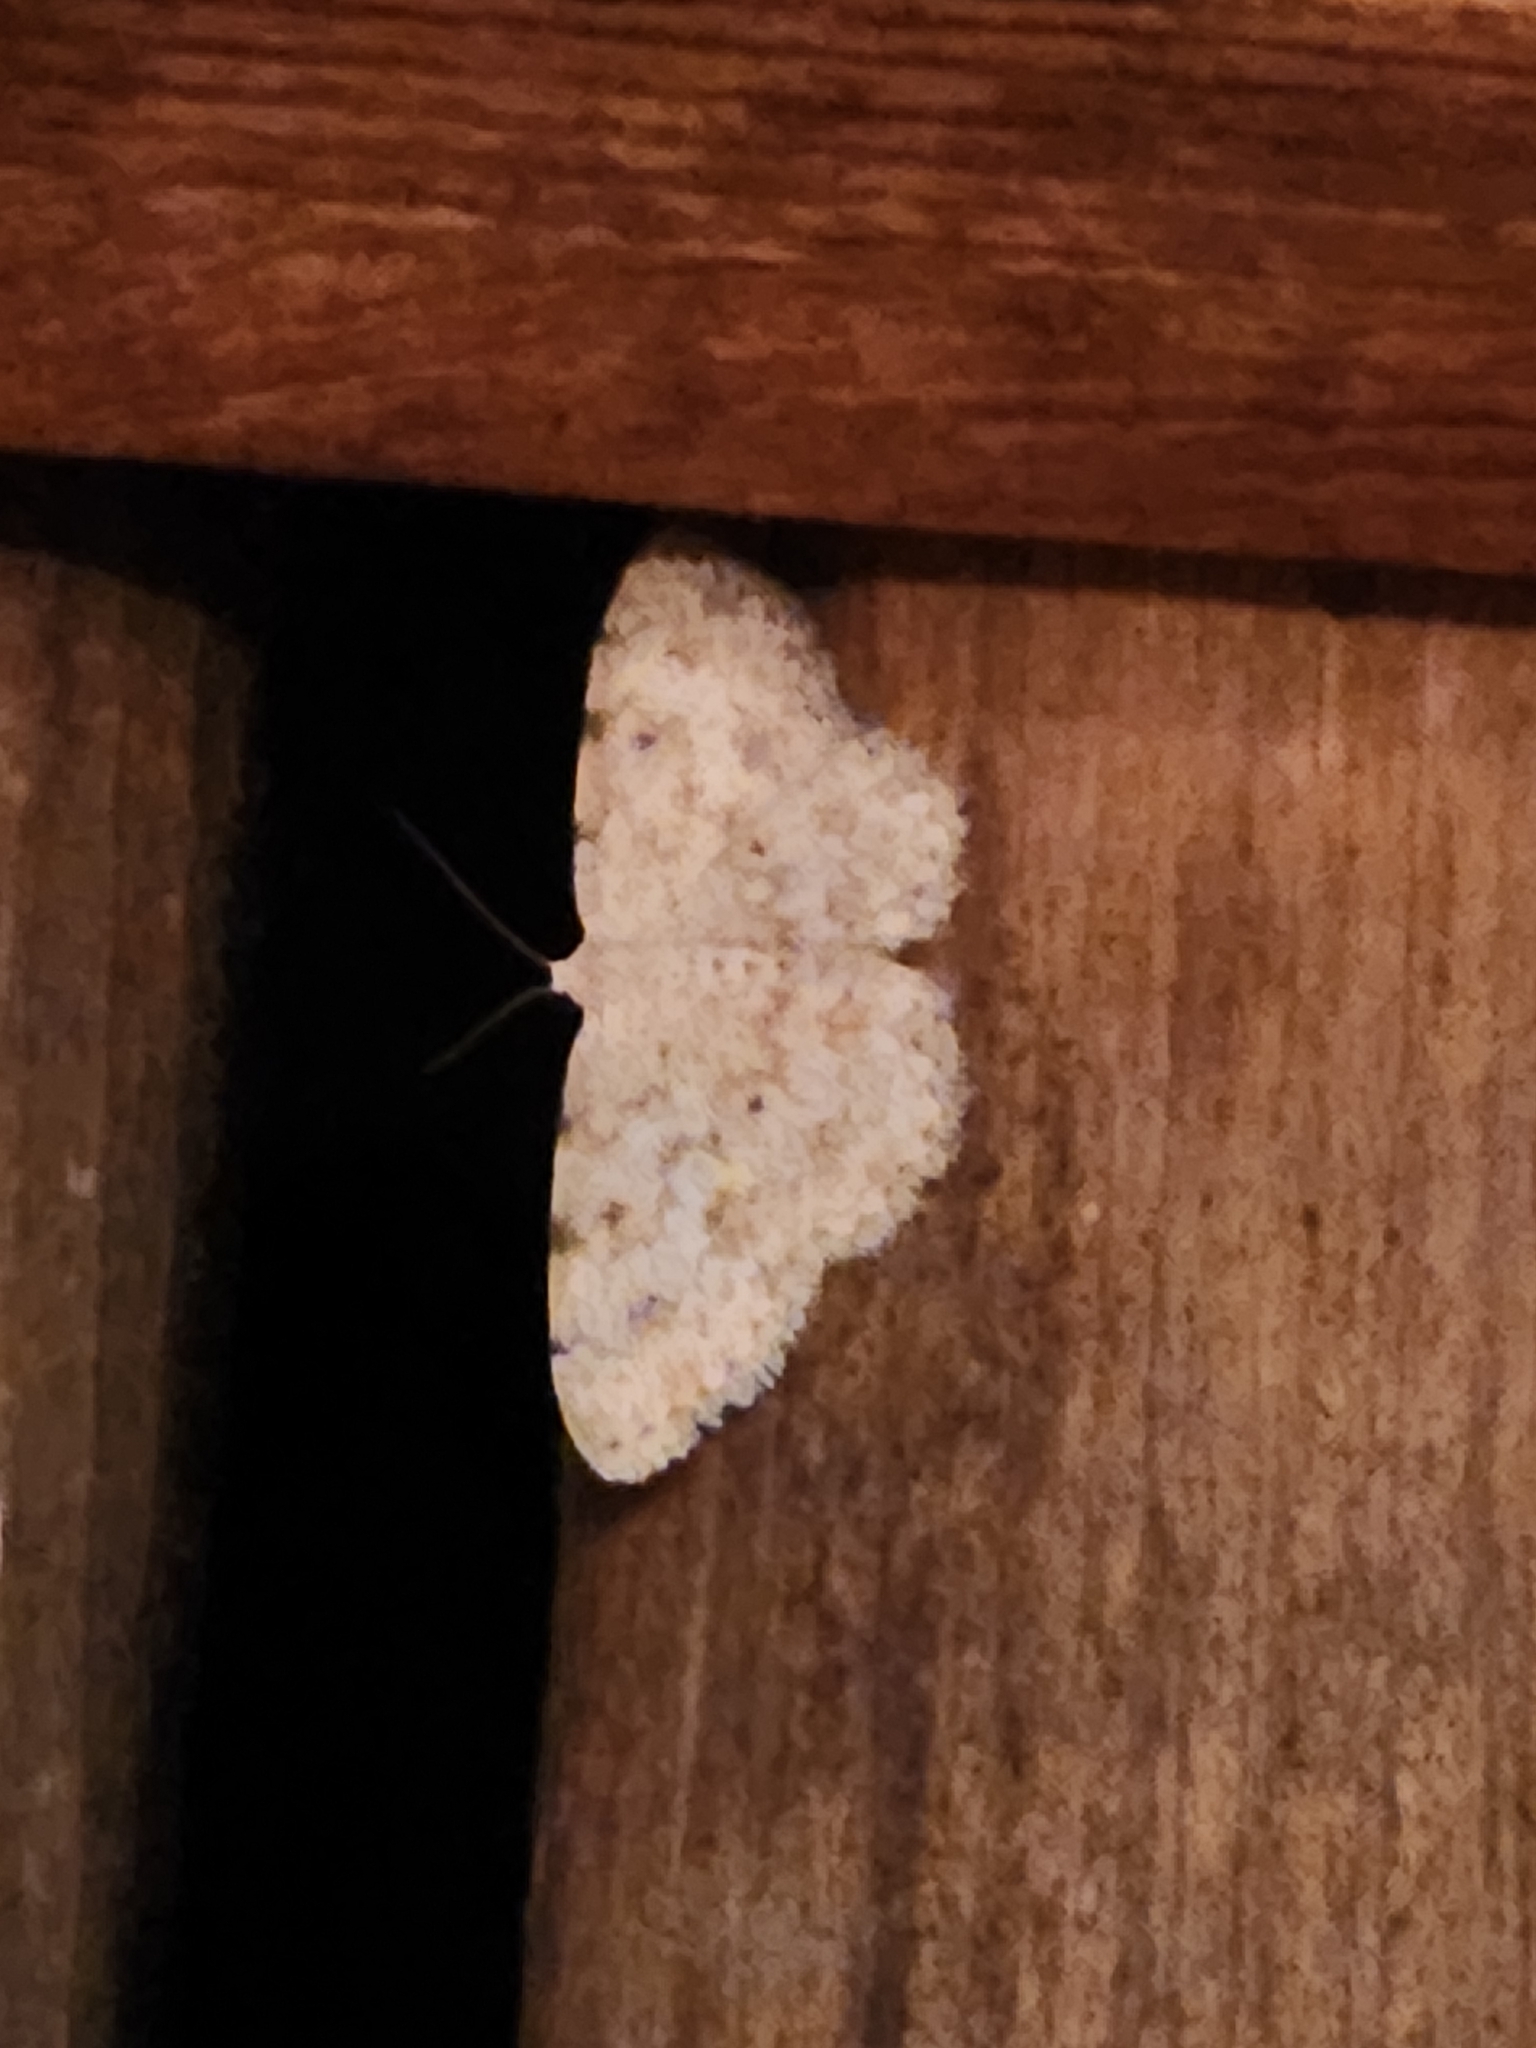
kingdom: Animalia
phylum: Arthropoda
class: Insecta
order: Lepidoptera
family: Geometridae
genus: Scopula
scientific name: Scopula plantagenaria
